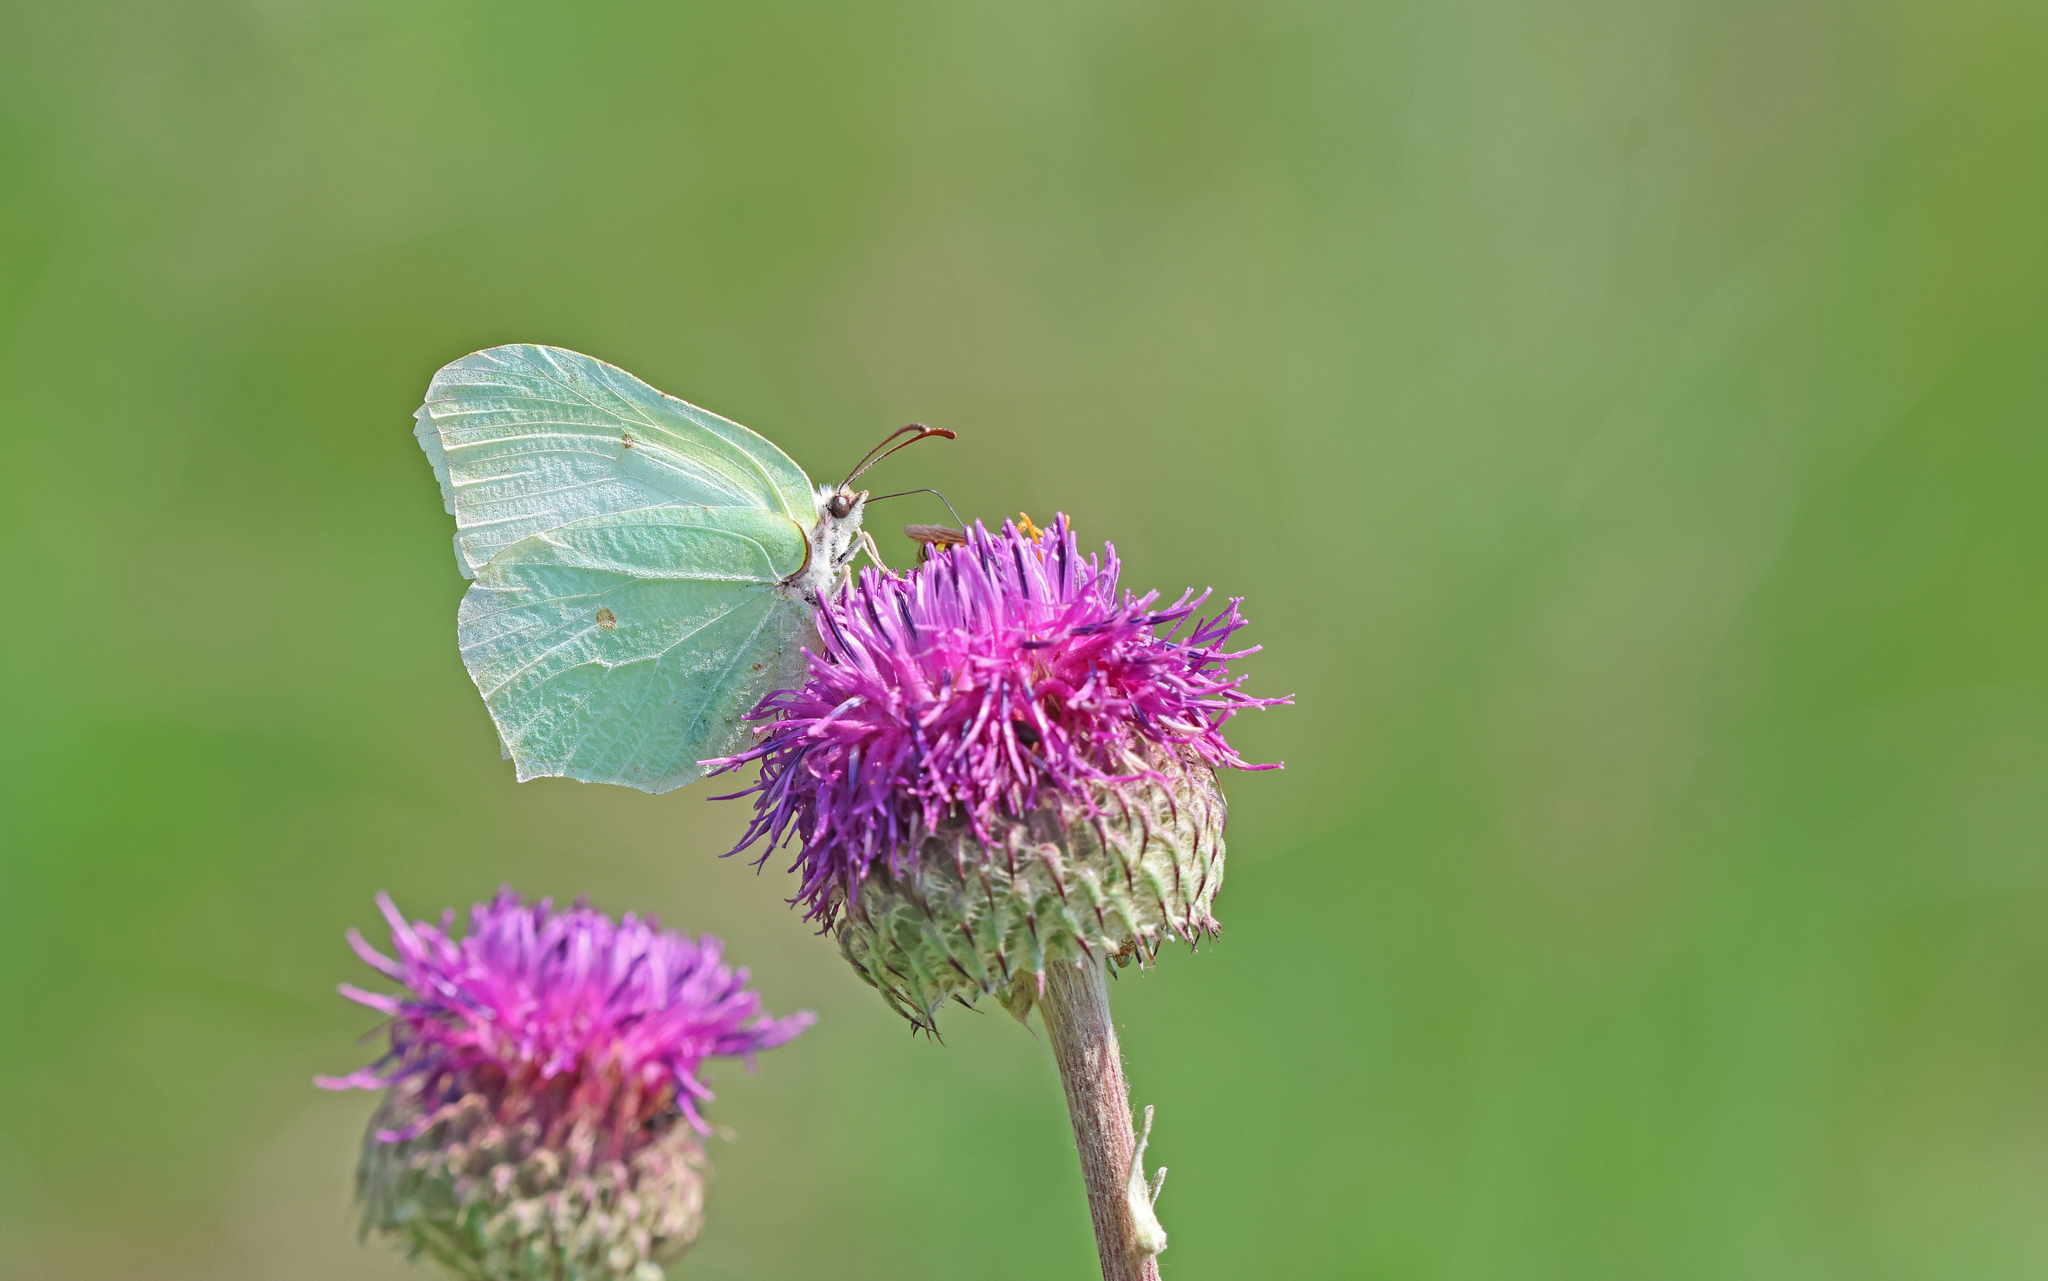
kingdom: Animalia
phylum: Arthropoda
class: Insecta
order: Lepidoptera
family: Pieridae
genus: Gonepteryx
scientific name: Gonepteryx rhamni
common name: Brimstone
